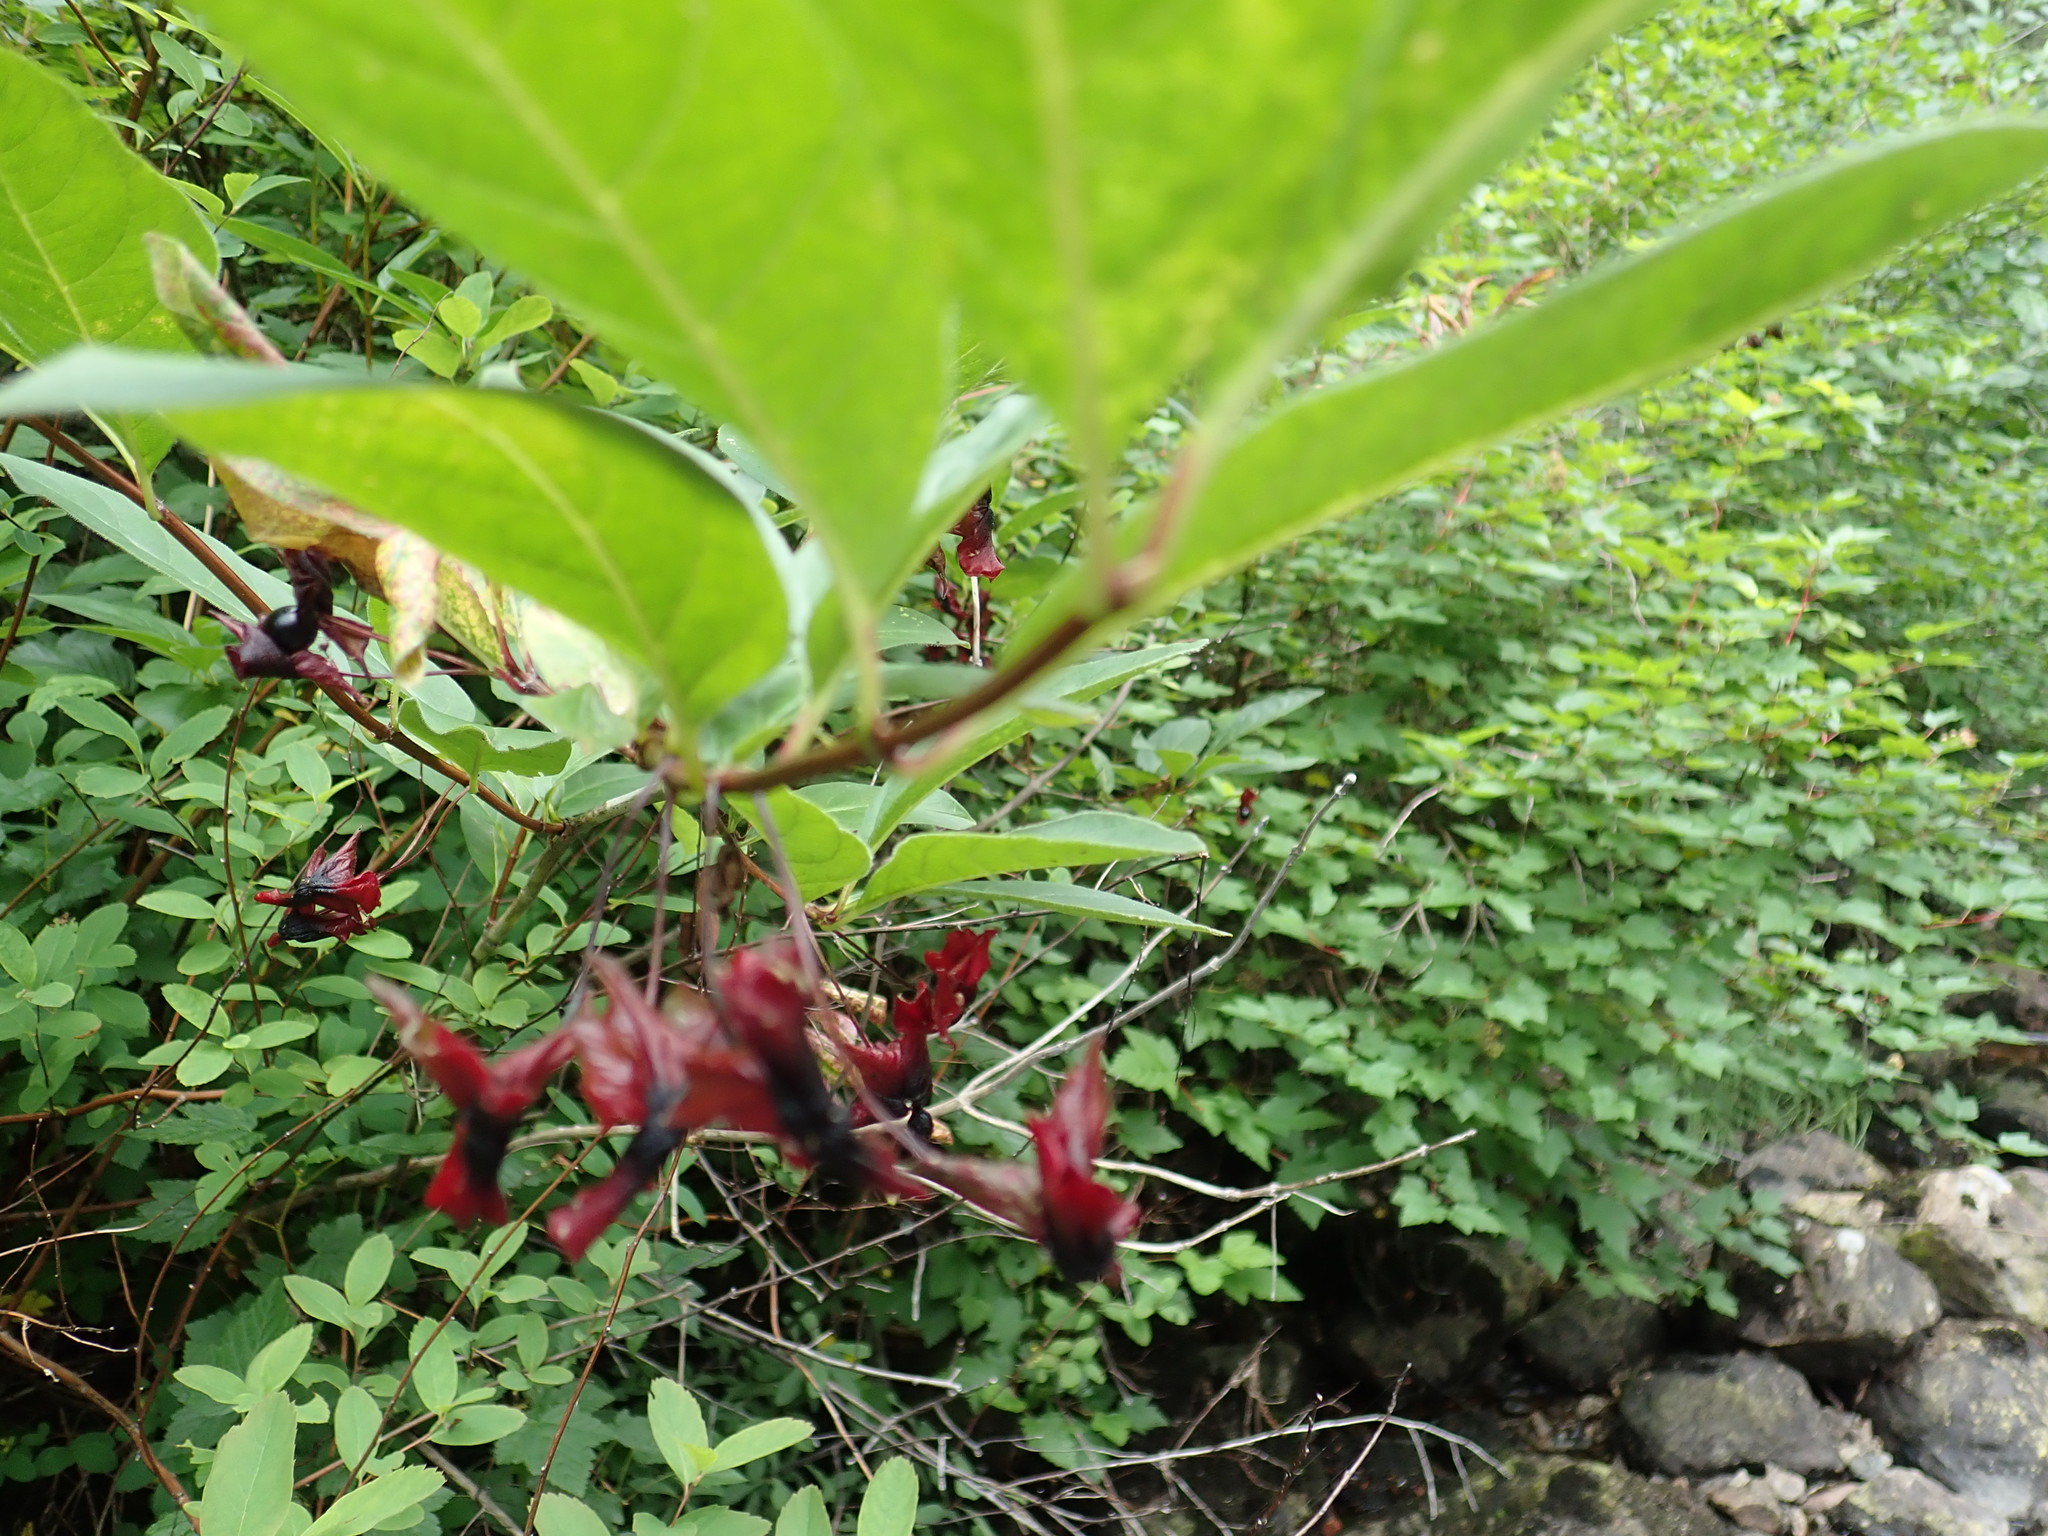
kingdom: Plantae
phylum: Tracheophyta
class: Magnoliopsida
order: Dipsacales
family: Caprifoliaceae
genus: Lonicera
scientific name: Lonicera involucrata
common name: Californian honeysuckle
